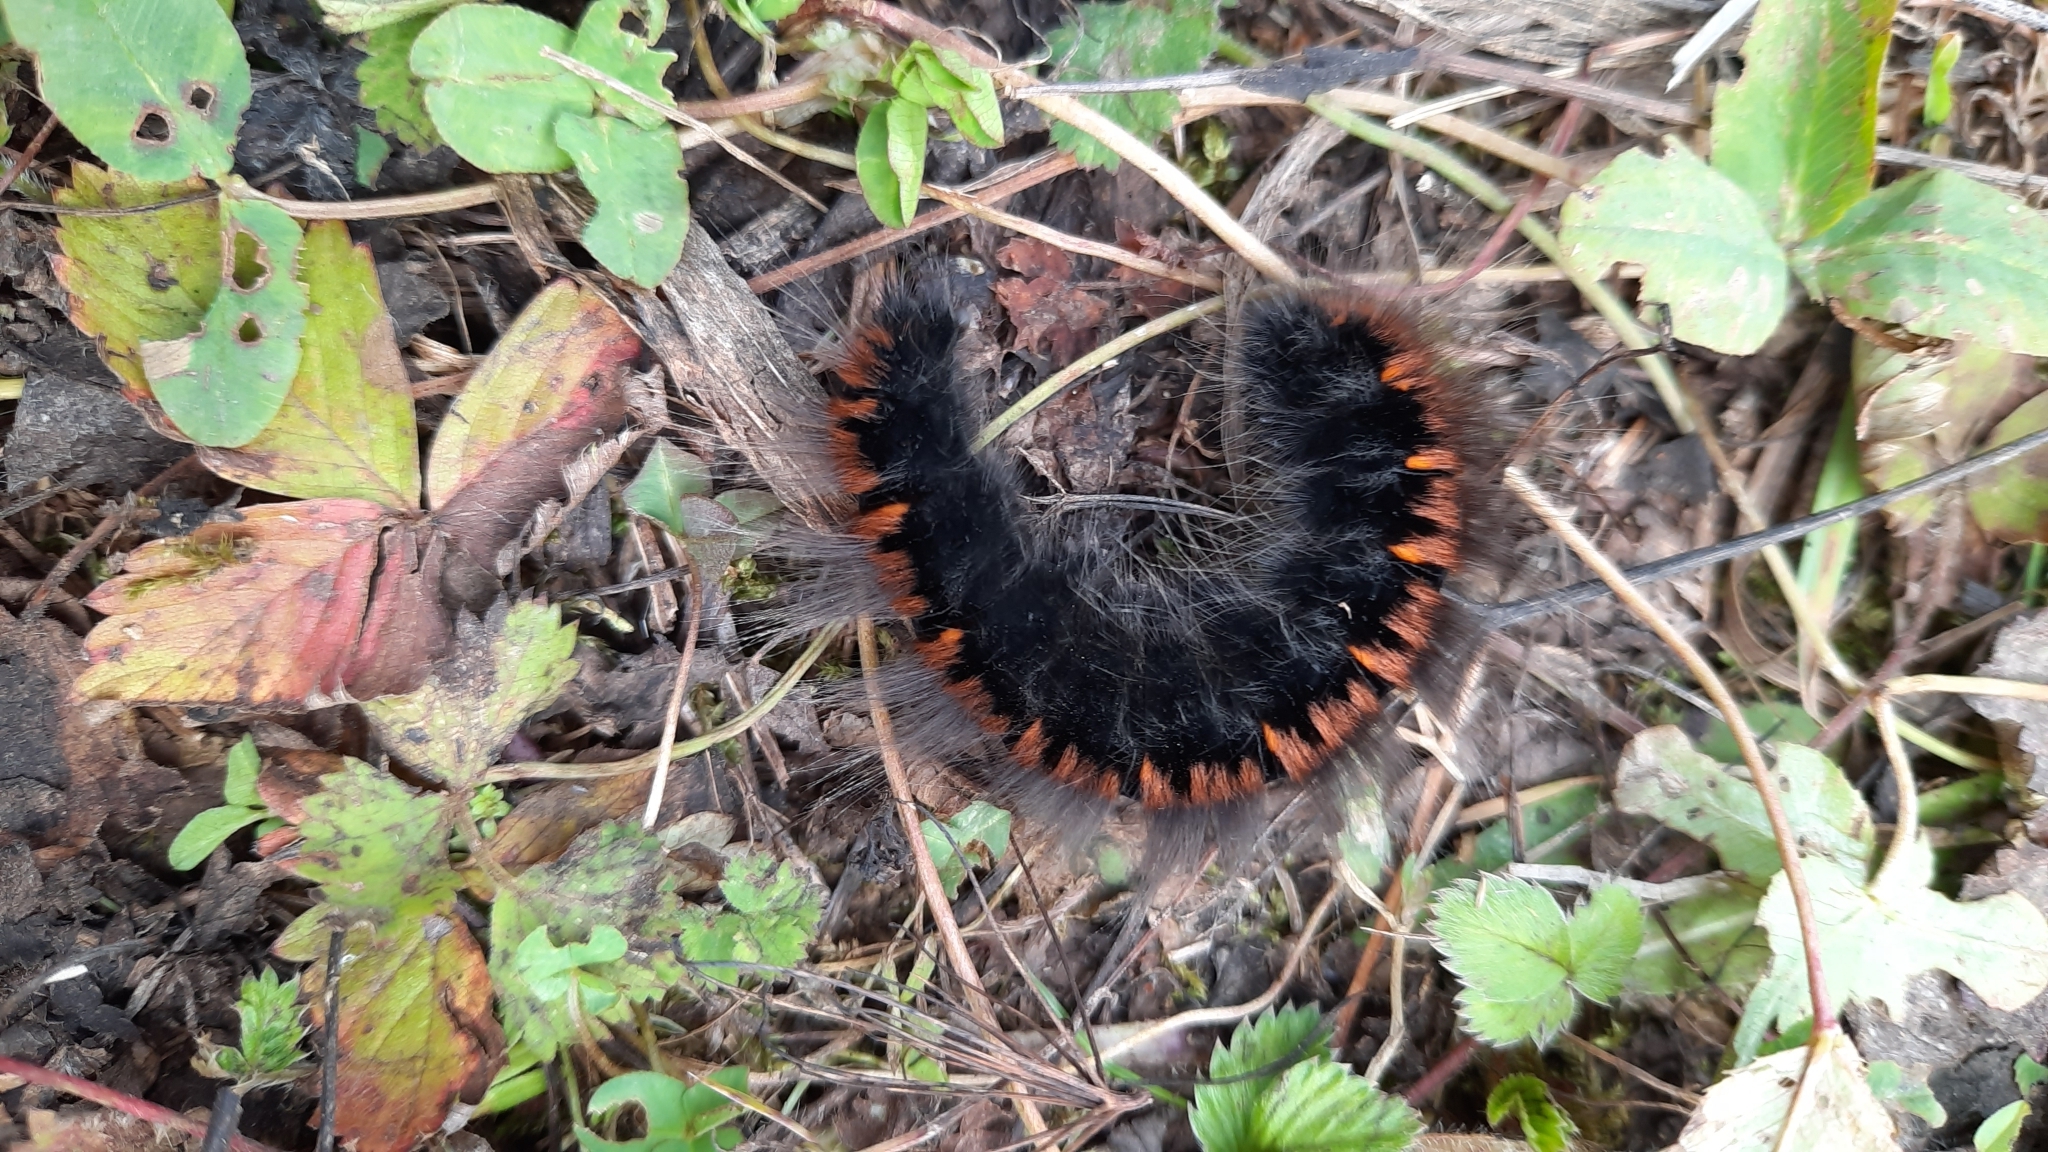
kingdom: Animalia
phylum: Arthropoda
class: Insecta
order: Lepidoptera
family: Lasiocampidae
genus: Macrothylacia
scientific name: Macrothylacia rubi
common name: Fox moth
